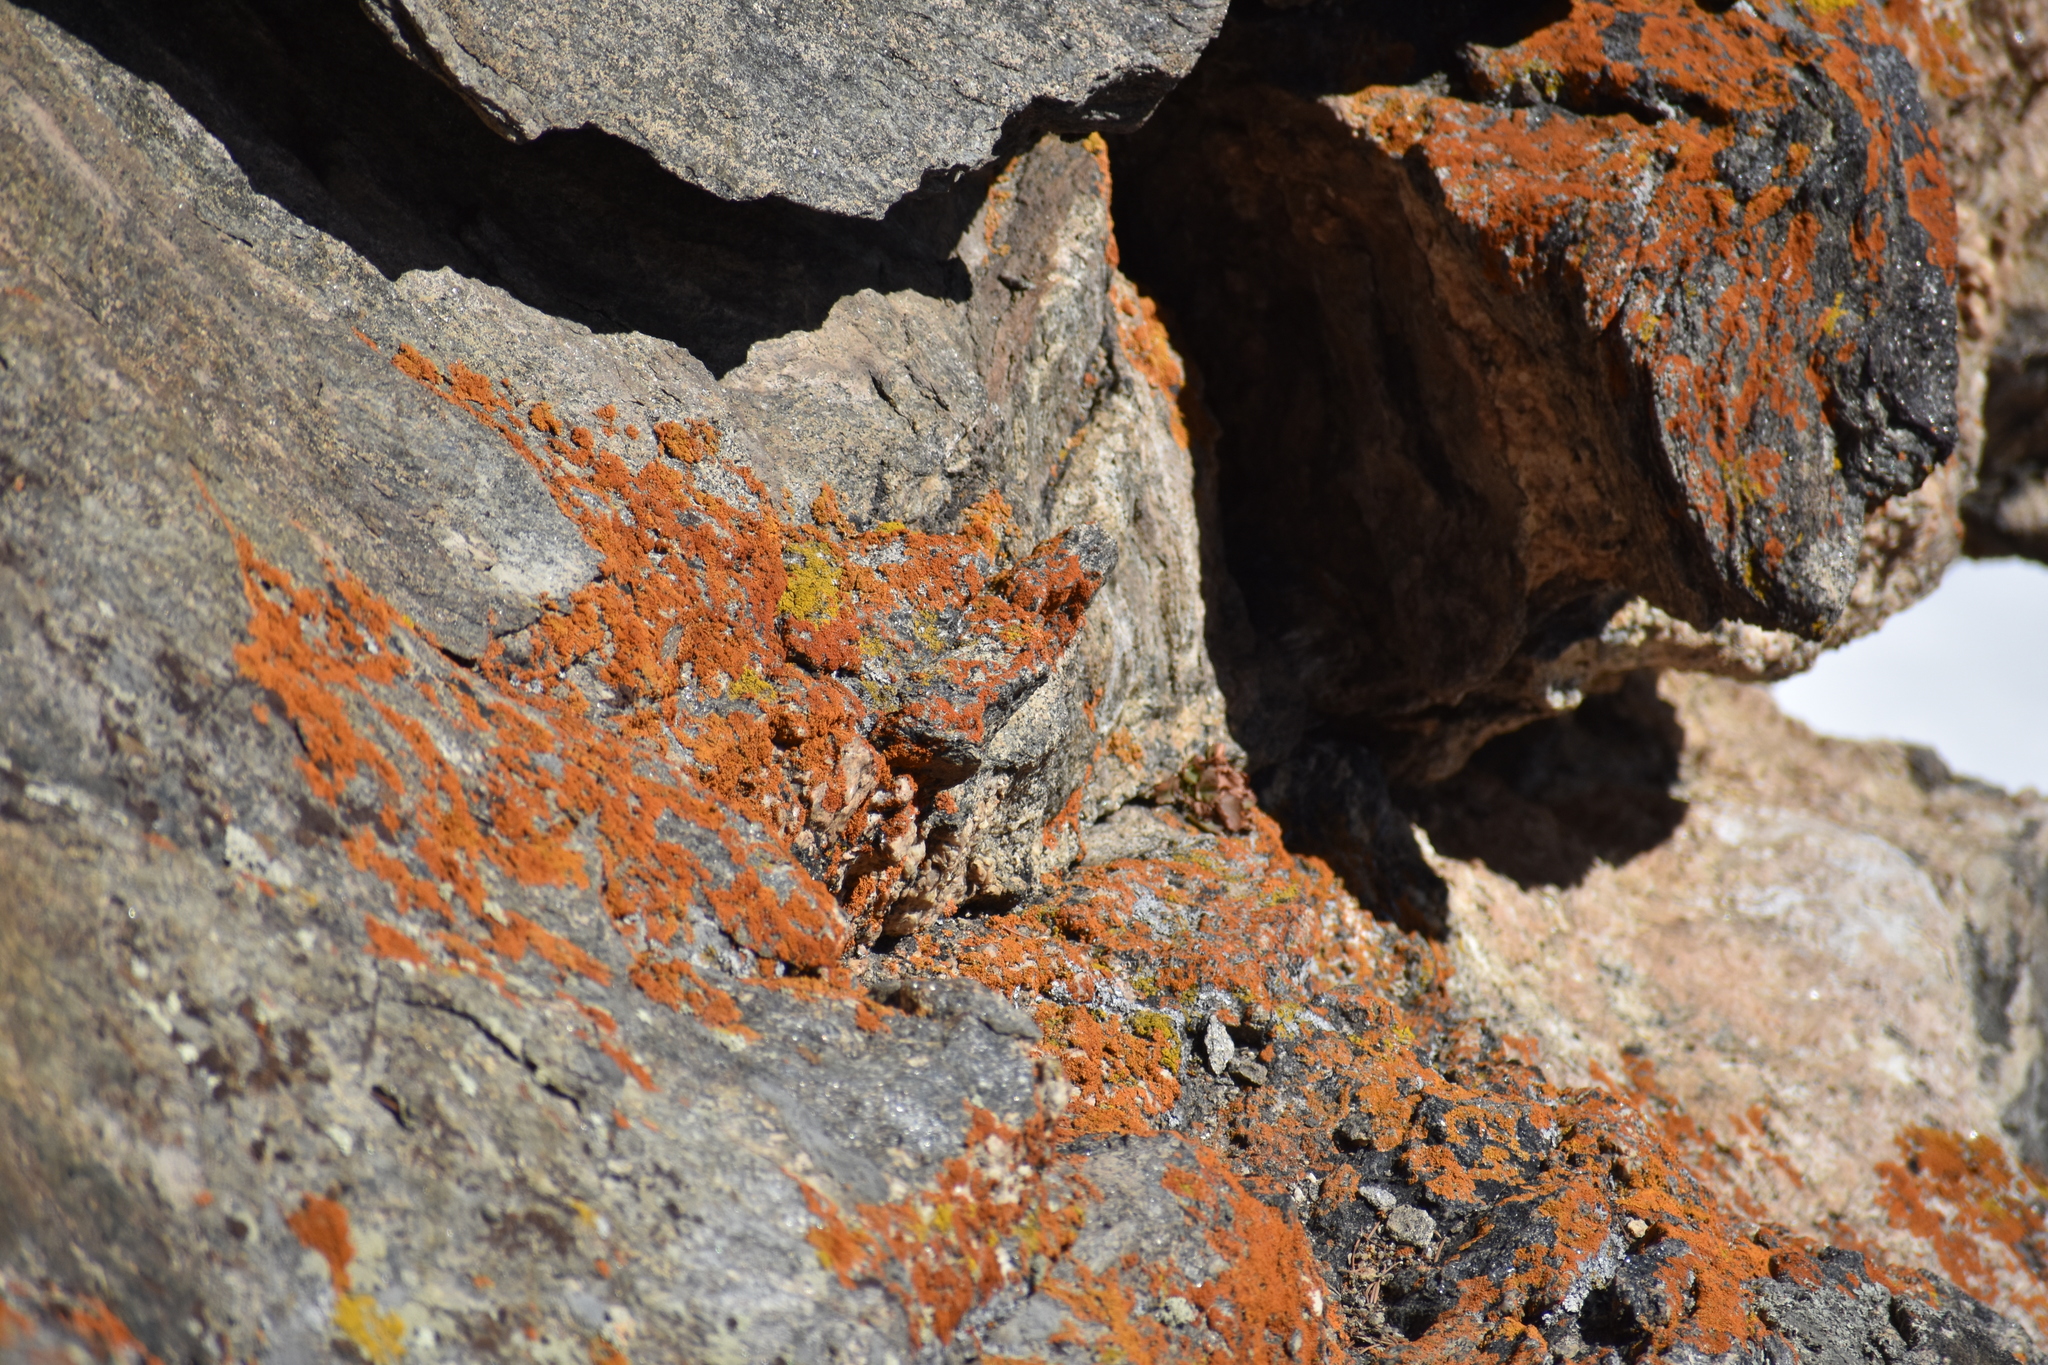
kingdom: Fungi
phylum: Ascomycota
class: Lecanoromycetes
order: Teloschistales
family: Teloschistaceae
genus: Xanthoria
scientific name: Xanthoria elegans
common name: Elegant sunburst lichen
